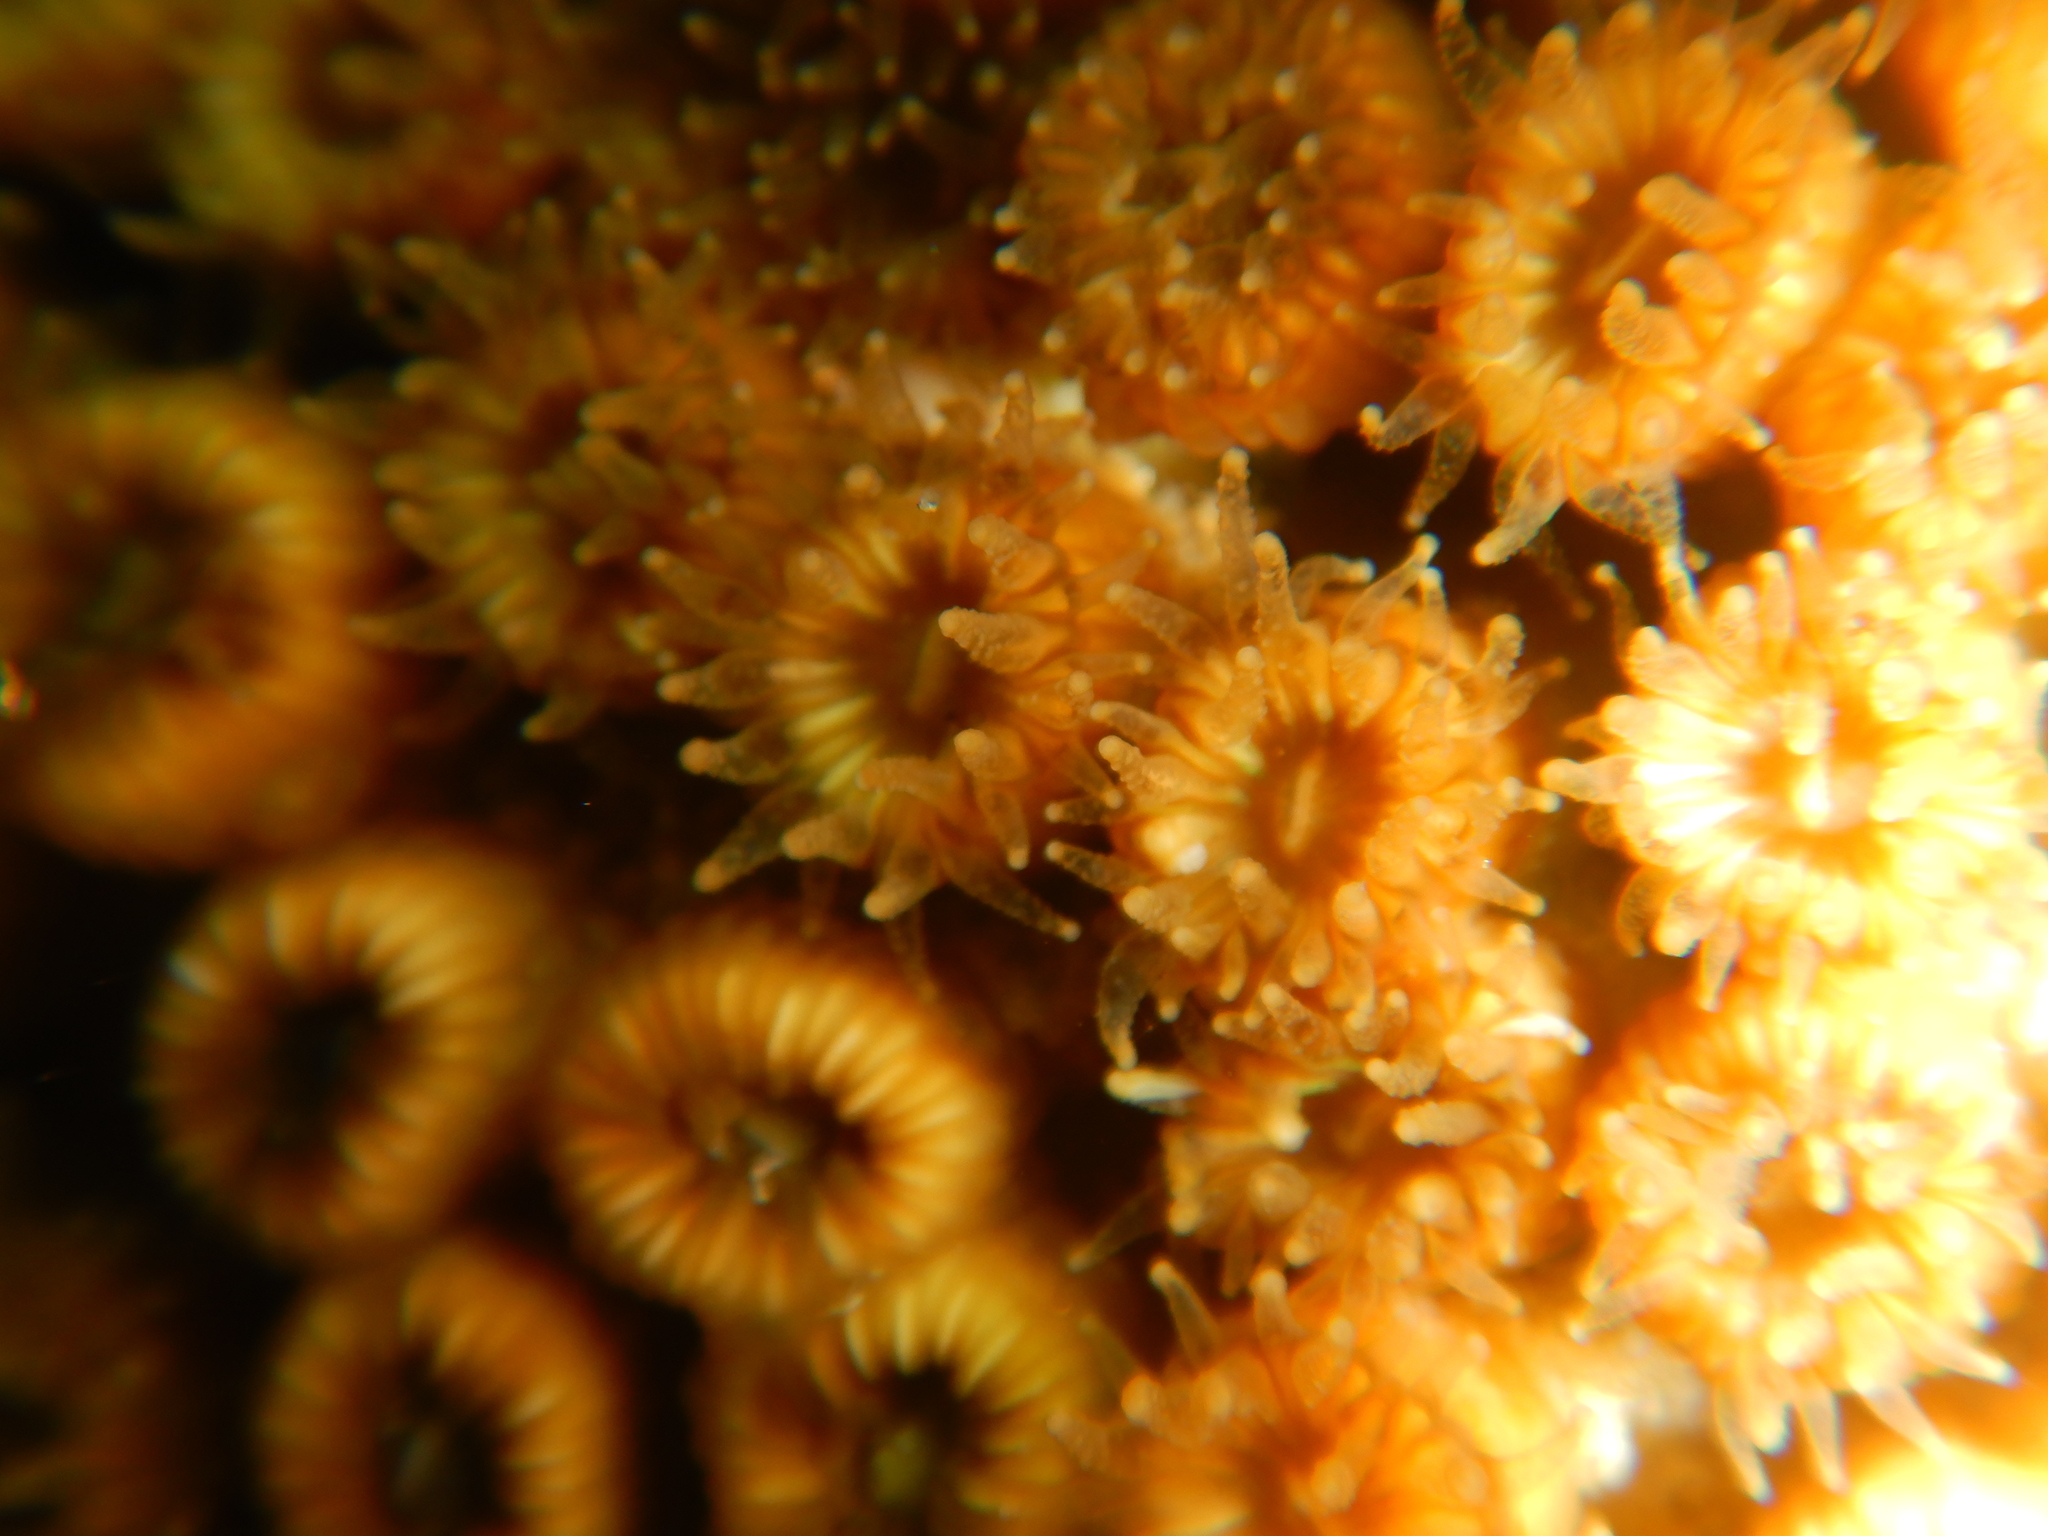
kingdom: Animalia
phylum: Cnidaria
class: Anthozoa
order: Scleractinia
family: Cladocoridae
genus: Cladocora
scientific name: Cladocora caespitosa
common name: Cladocora
